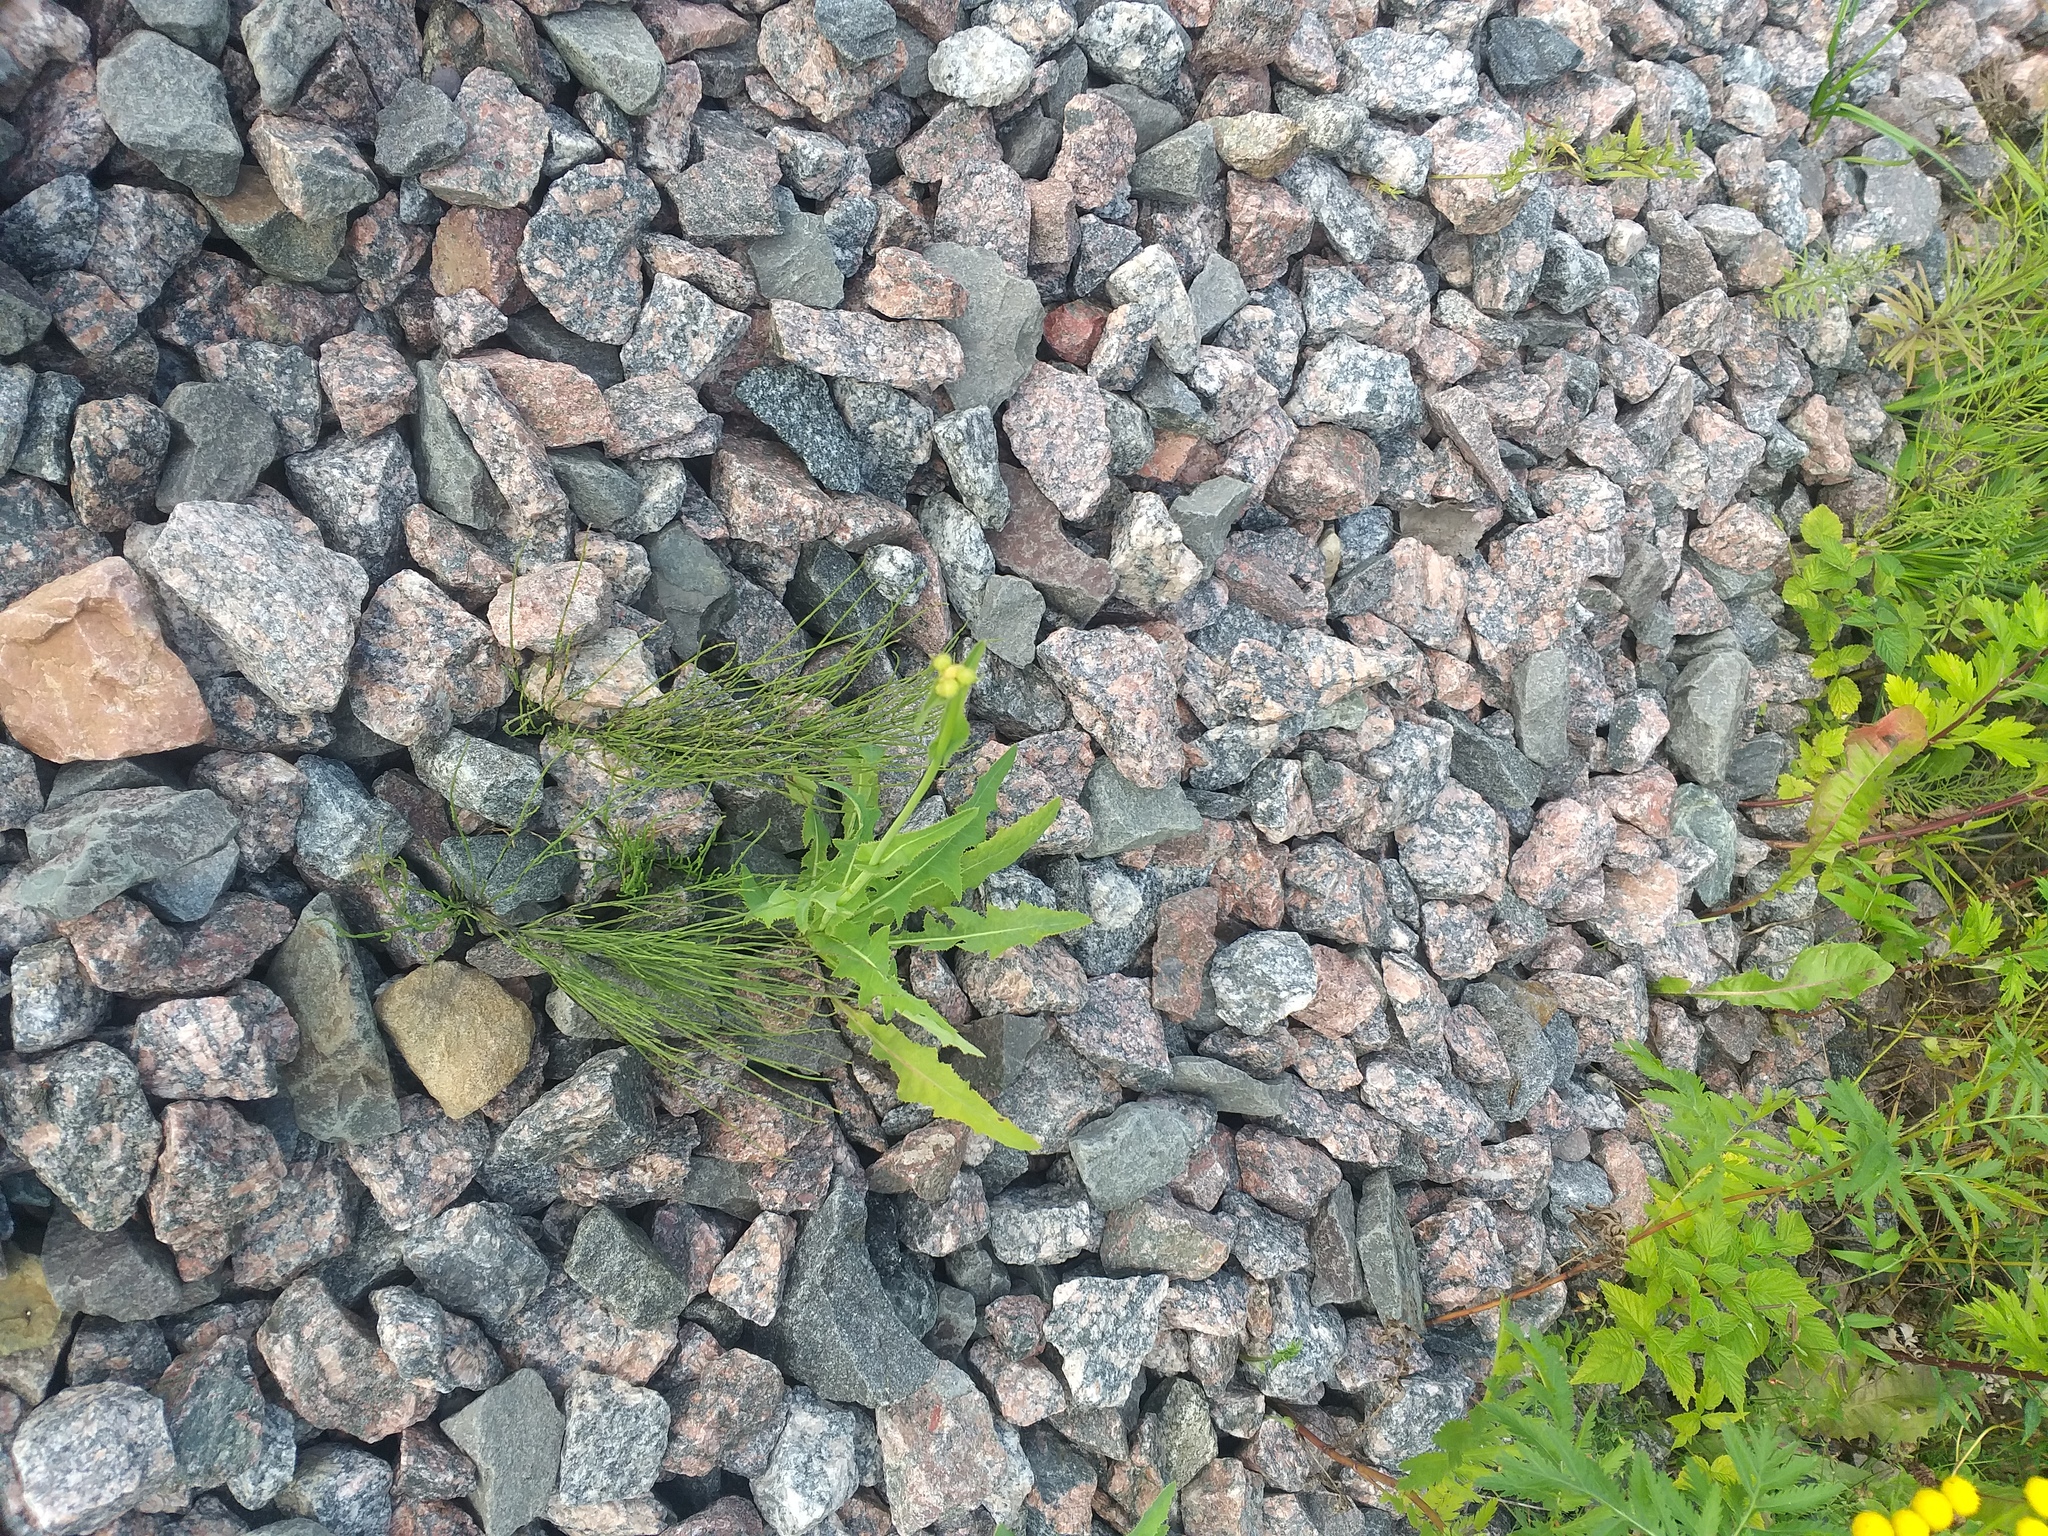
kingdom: Plantae
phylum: Tracheophyta
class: Magnoliopsida
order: Asterales
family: Asteraceae
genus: Sonchus
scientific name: Sonchus arvensis
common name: Perennial sow-thistle
